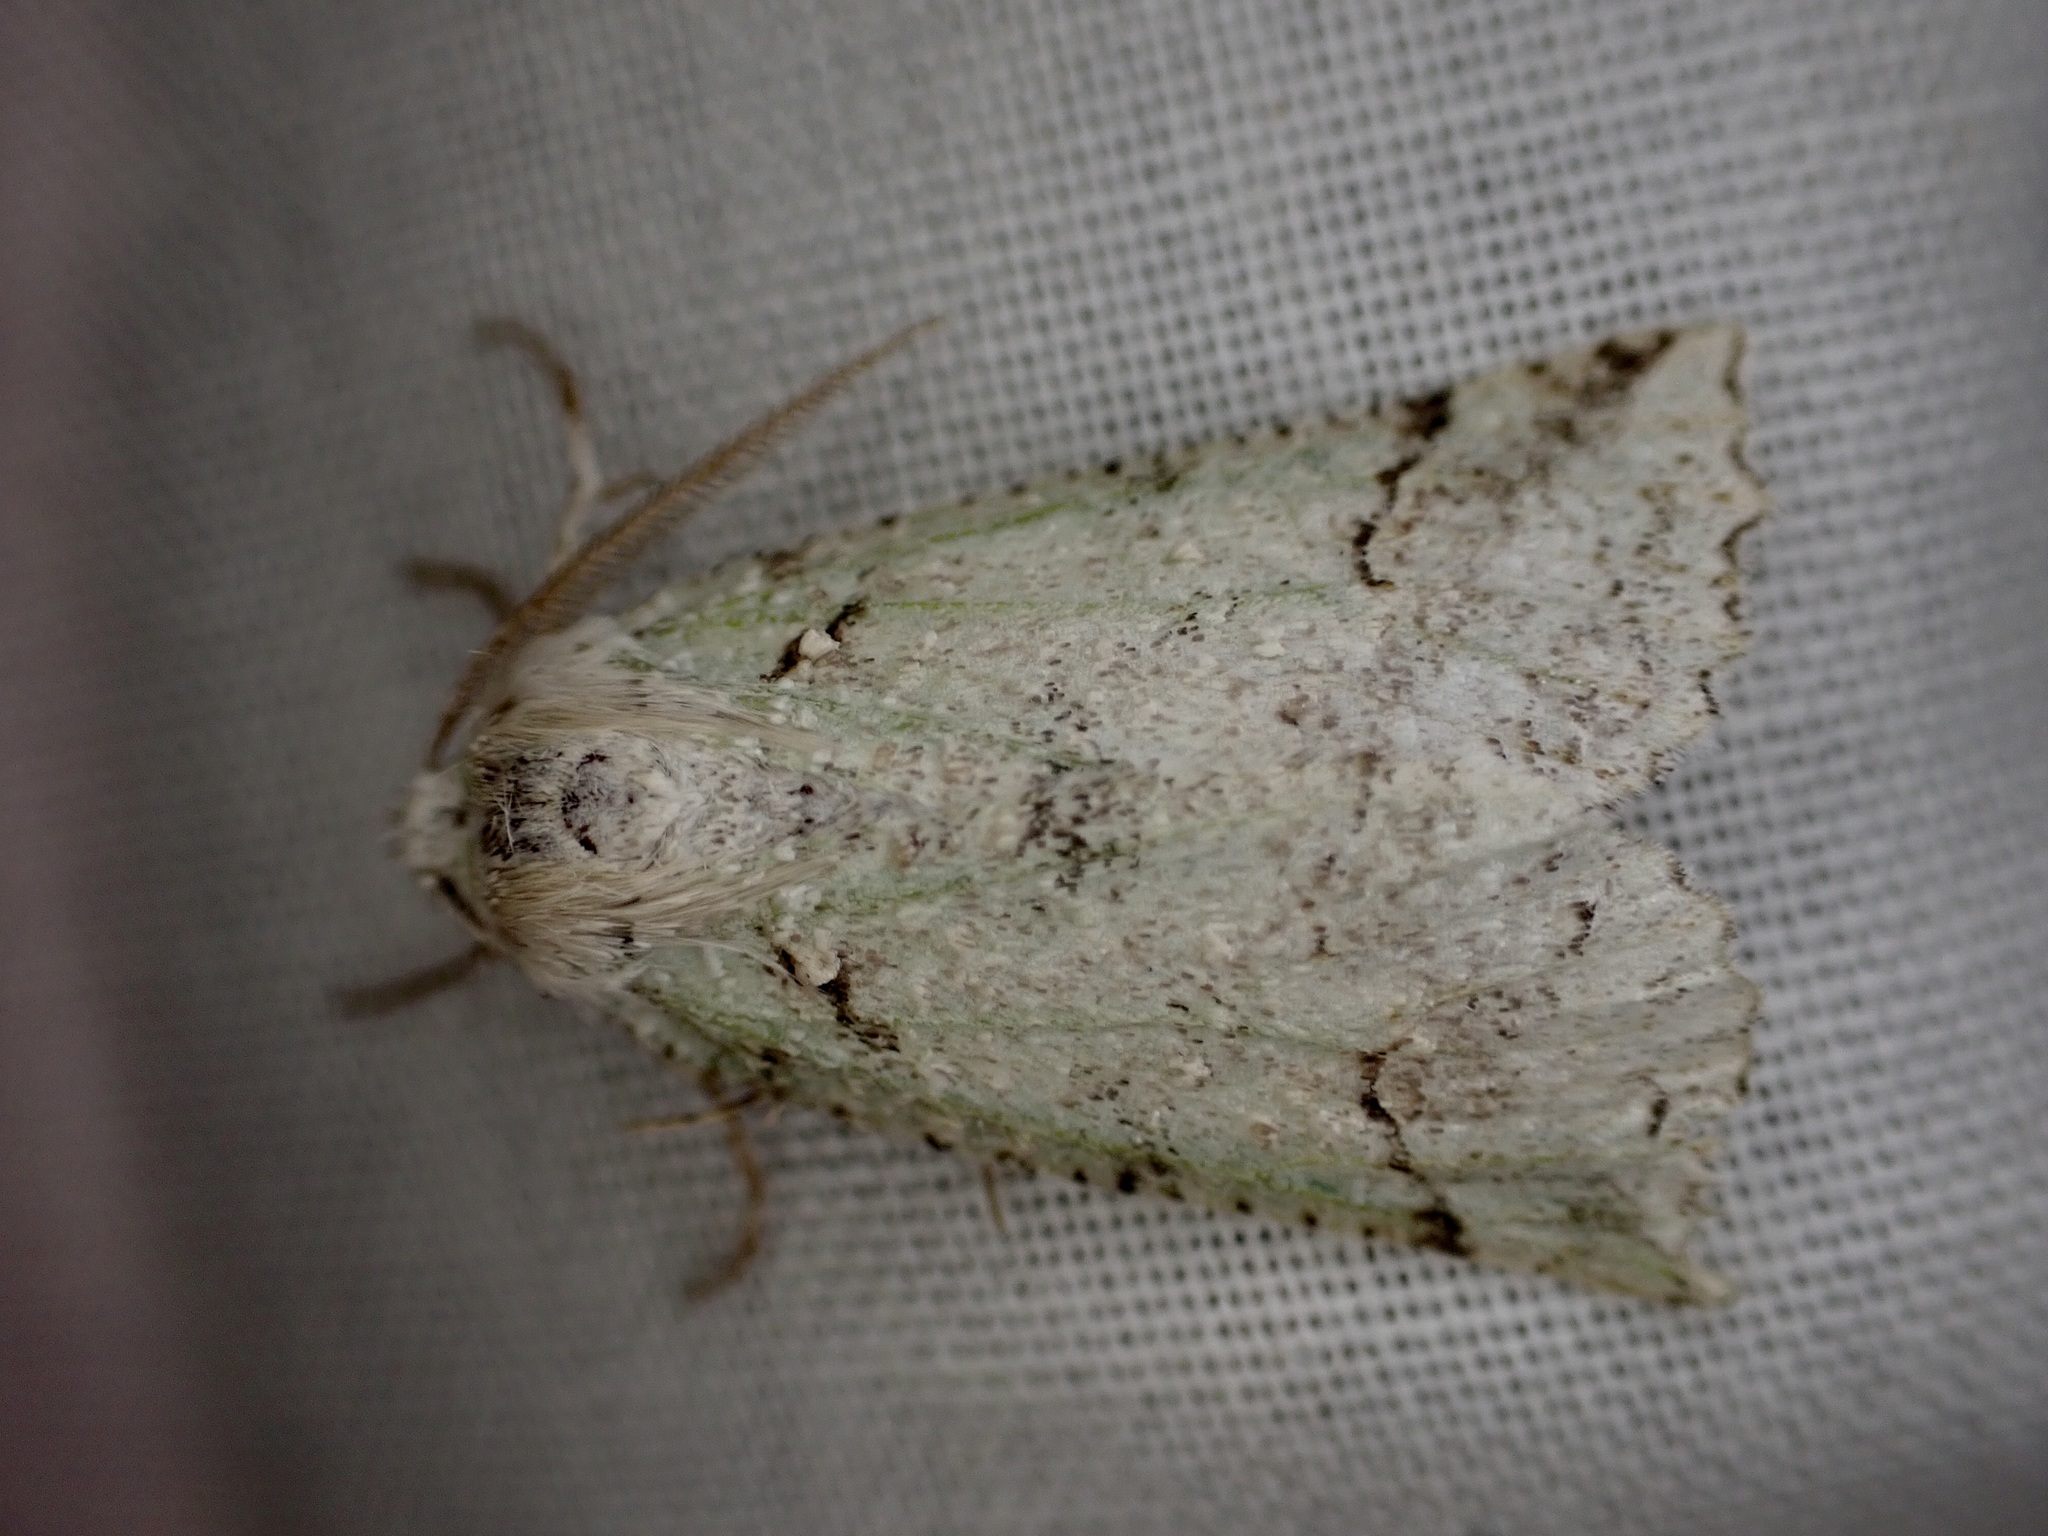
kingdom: Animalia
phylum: Arthropoda
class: Insecta
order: Lepidoptera
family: Geometridae
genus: Declana
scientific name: Declana floccosa
